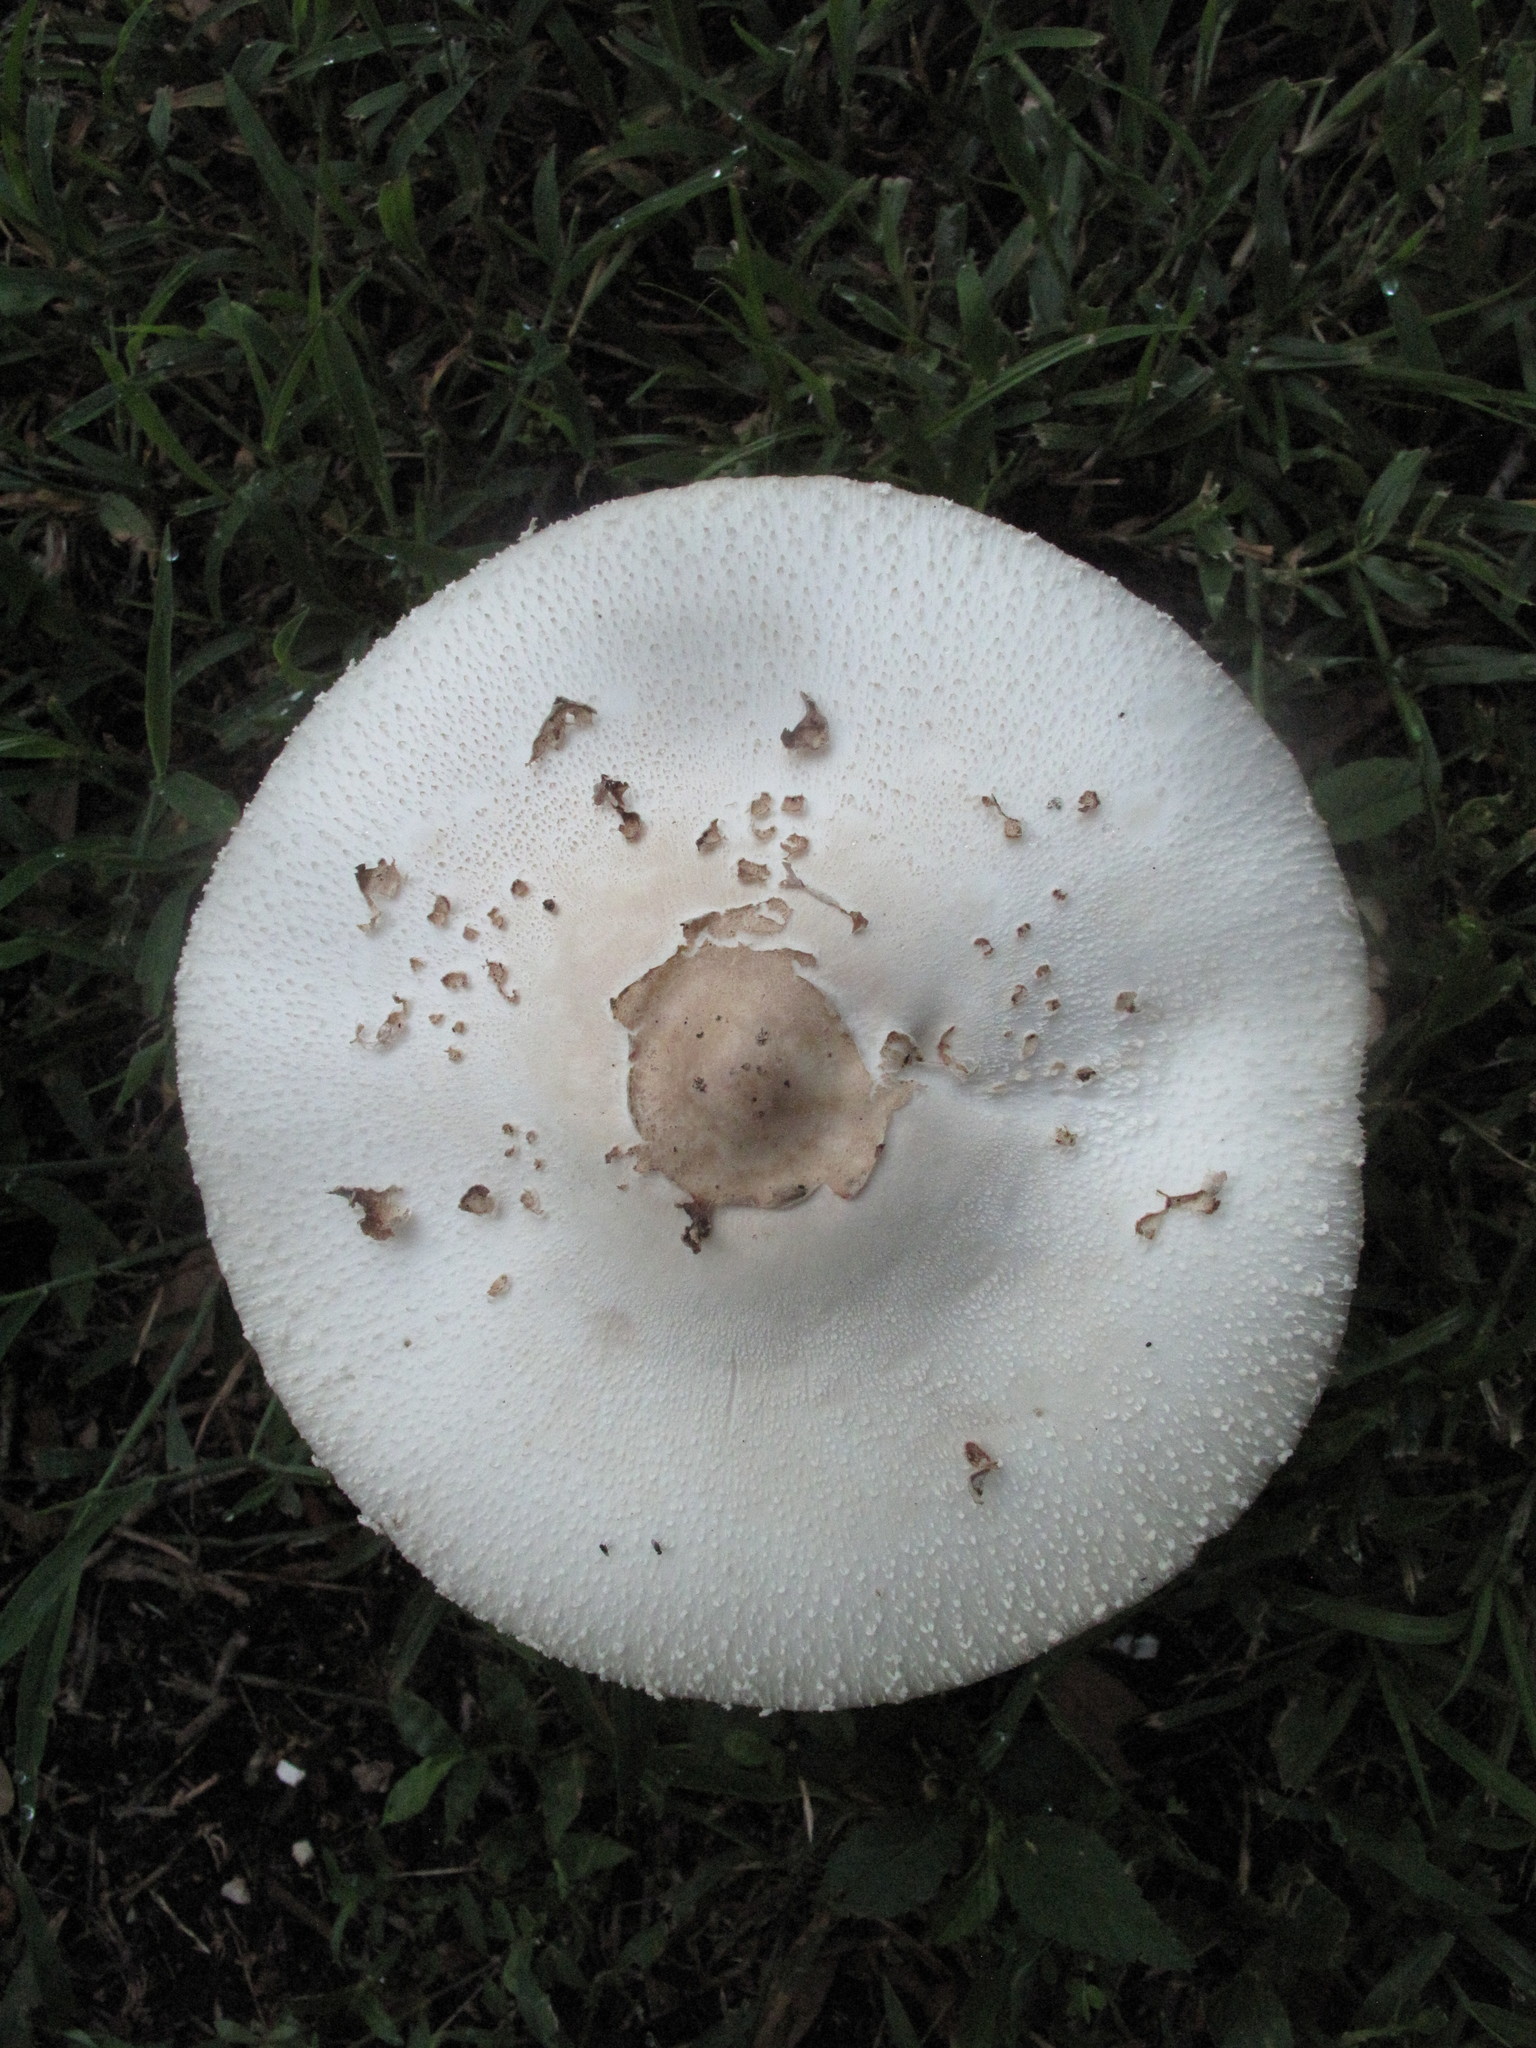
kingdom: Fungi
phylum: Basidiomycota
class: Agaricomycetes
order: Agaricales
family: Agaricaceae
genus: Chlorophyllum
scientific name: Chlorophyllum molybdites
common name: False parasol
